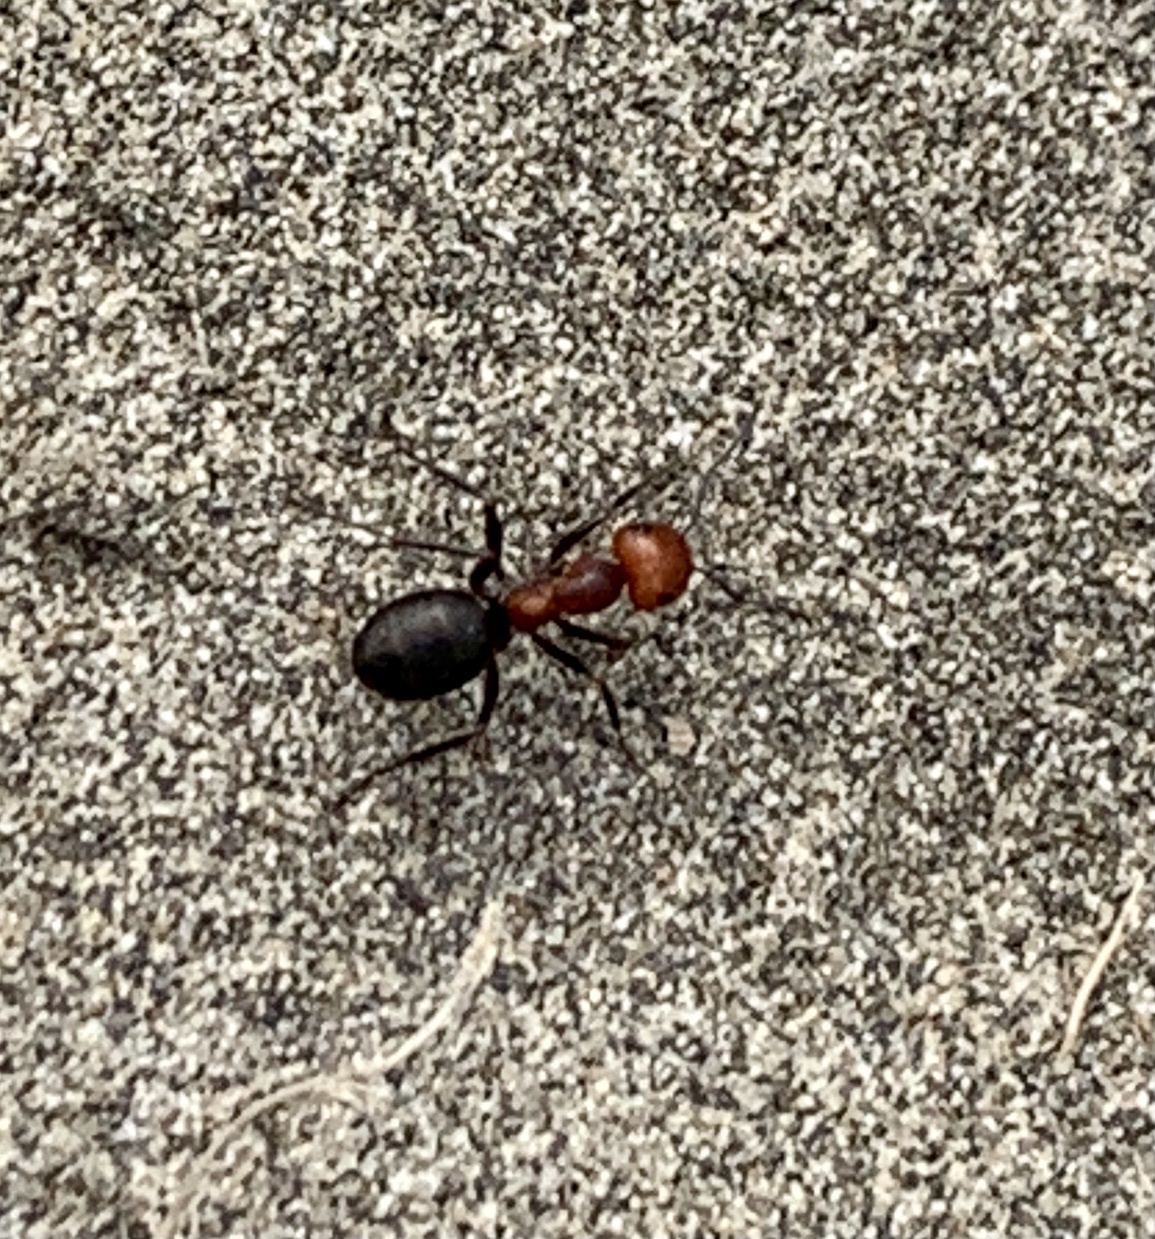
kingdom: Animalia
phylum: Arthropoda
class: Insecta
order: Hymenoptera
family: Formicidae
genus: Formica
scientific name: Formica obscuripes
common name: Western thatching ant
